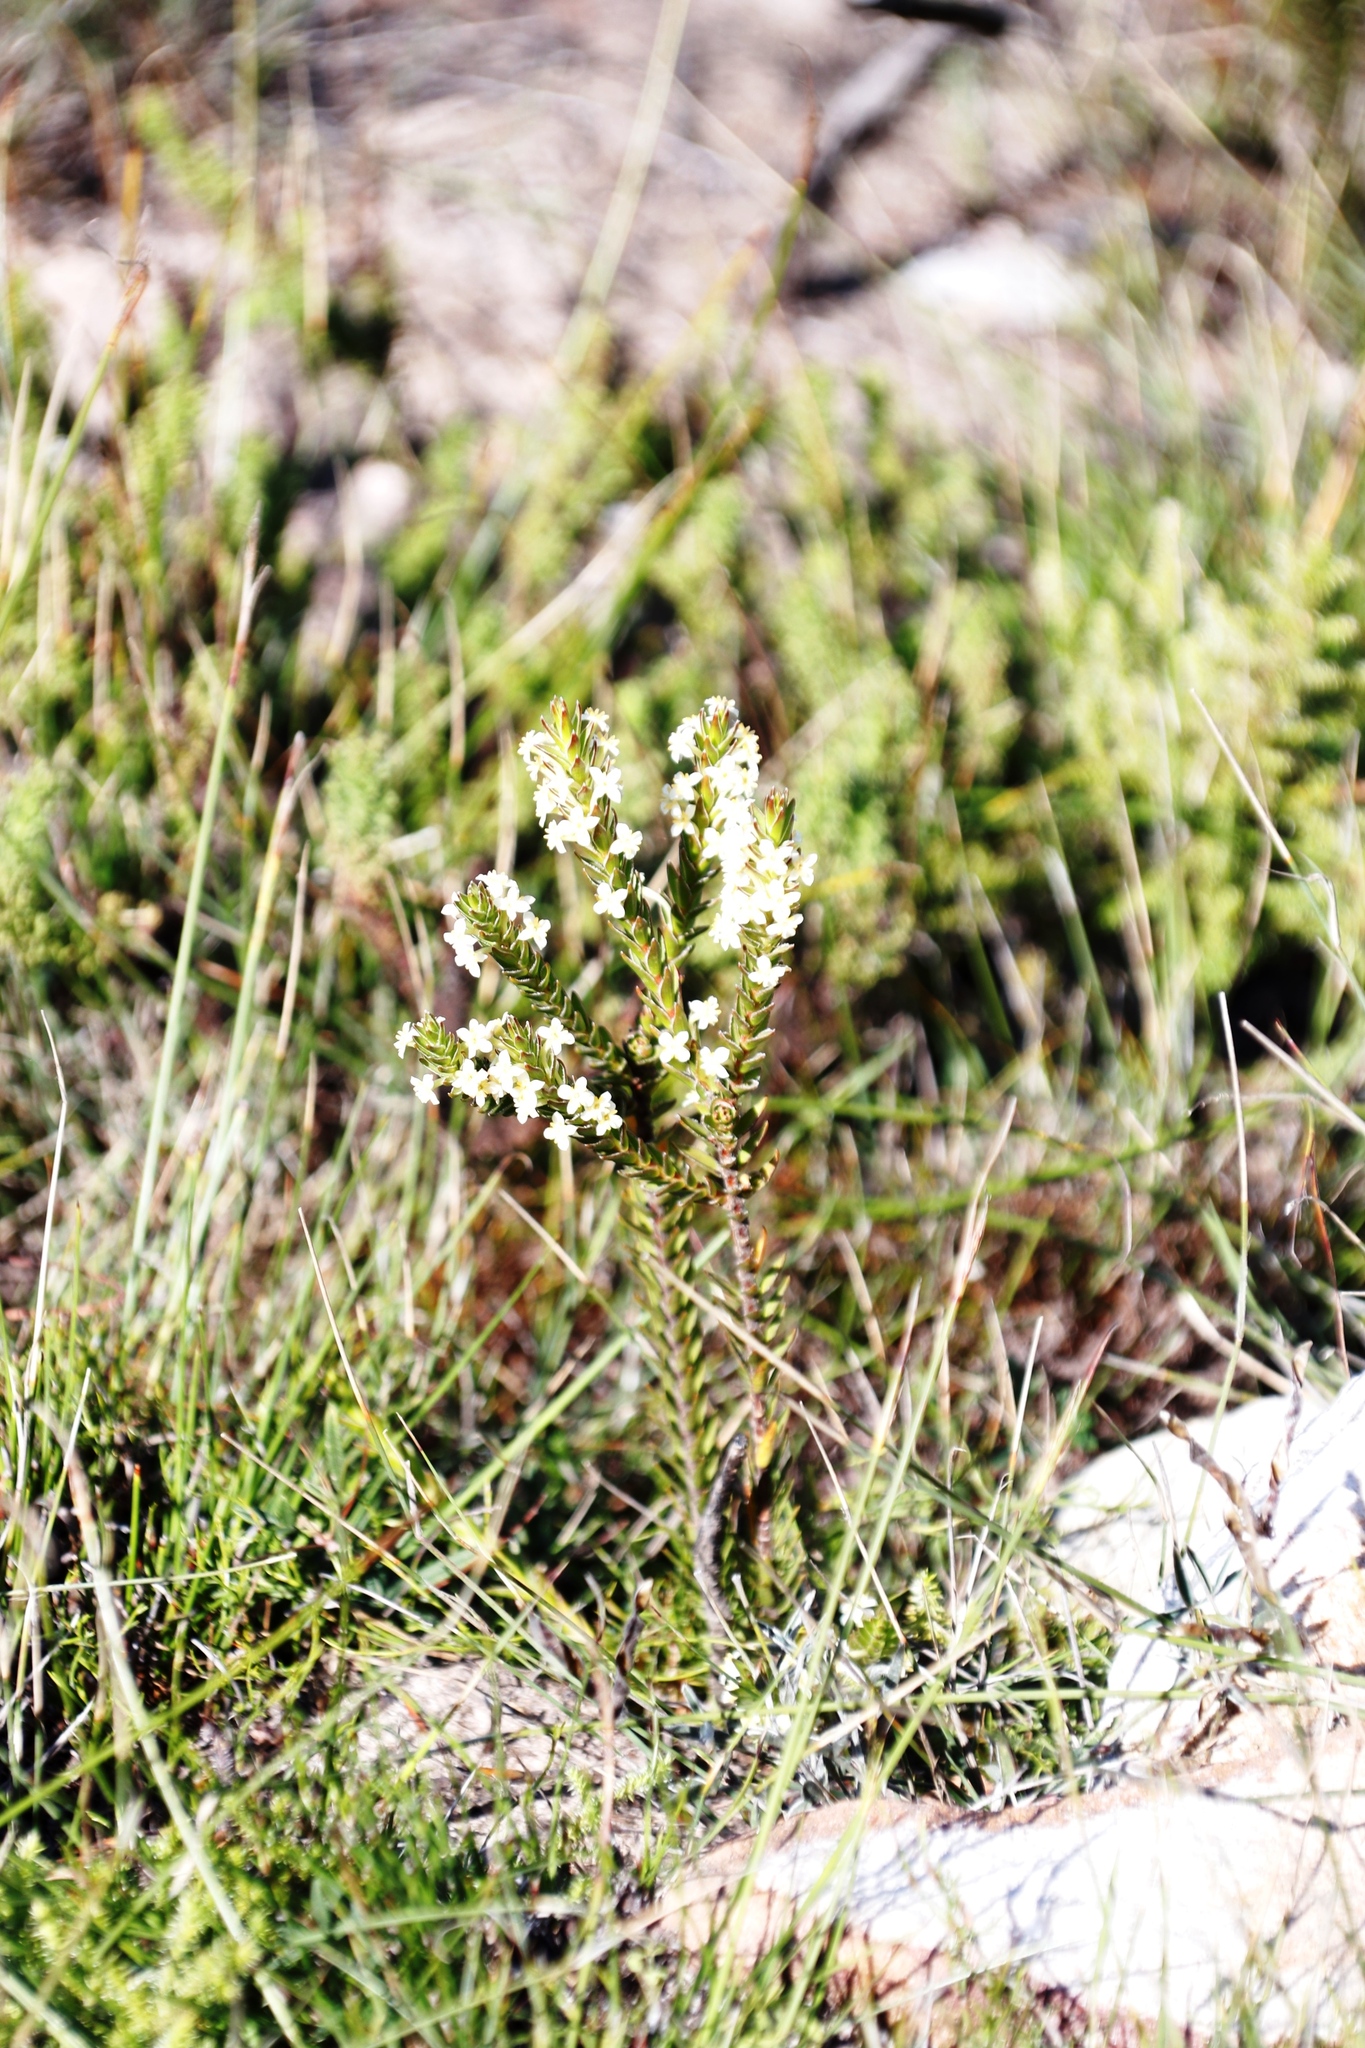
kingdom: Plantae
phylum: Tracheophyta
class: Magnoliopsida
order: Malvales
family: Thymelaeaceae
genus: Struthiola
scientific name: Struthiola ciliata
